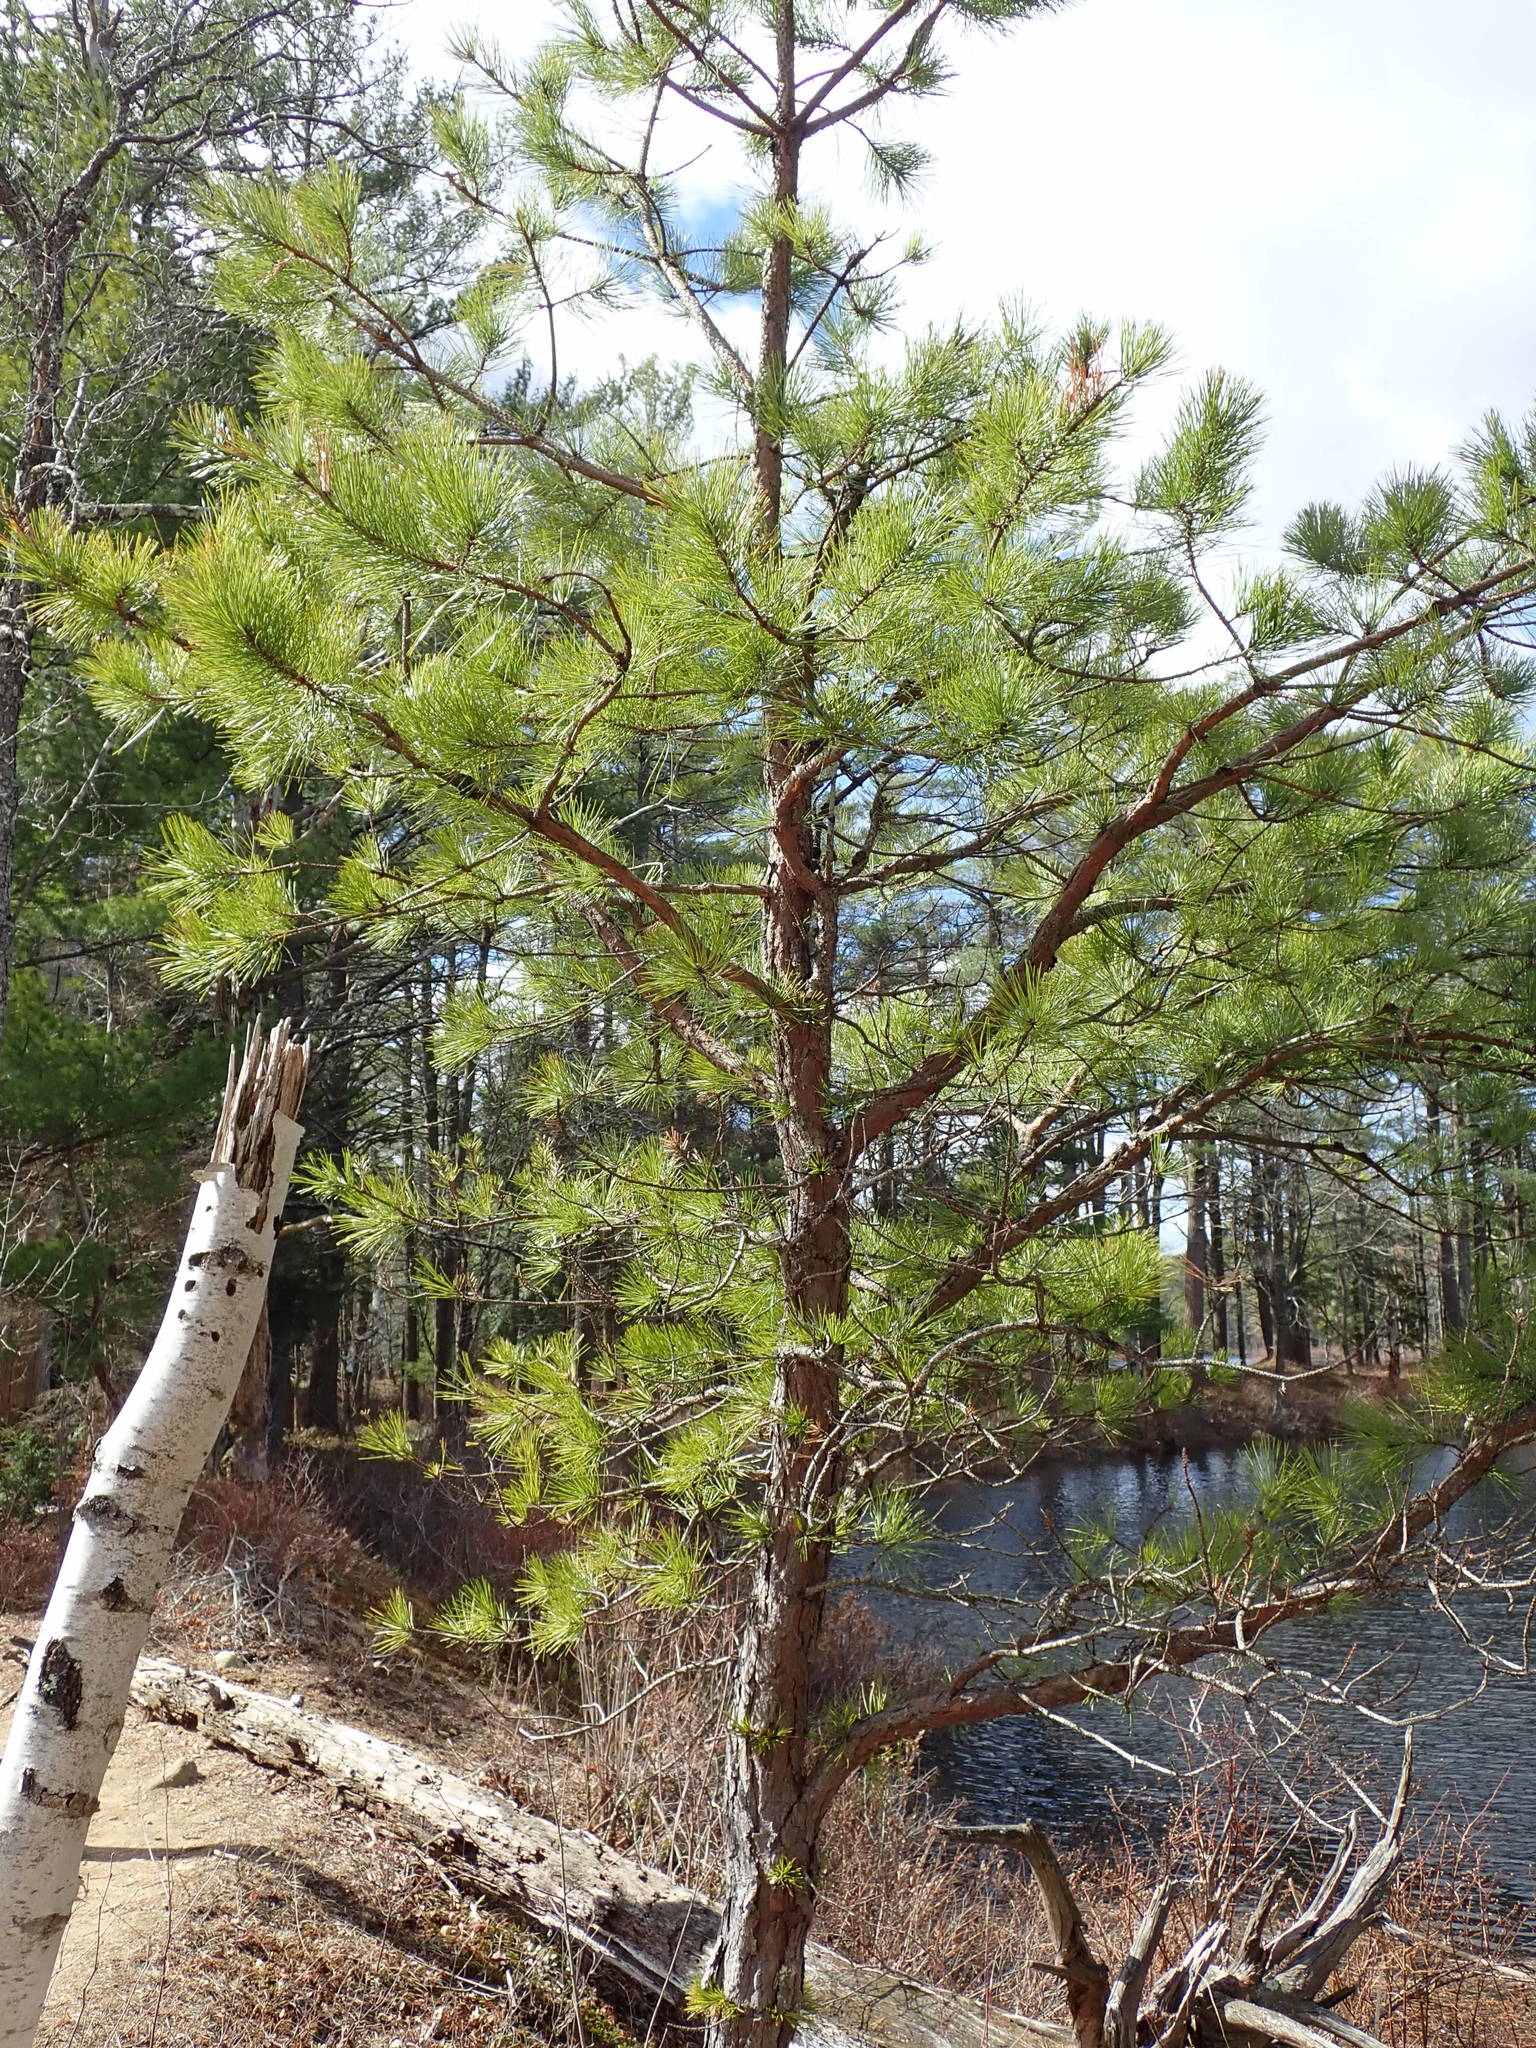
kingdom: Plantae
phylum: Tracheophyta
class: Pinopsida
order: Pinales
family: Pinaceae
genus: Pinus
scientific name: Pinus rigida
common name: Pitch pine
